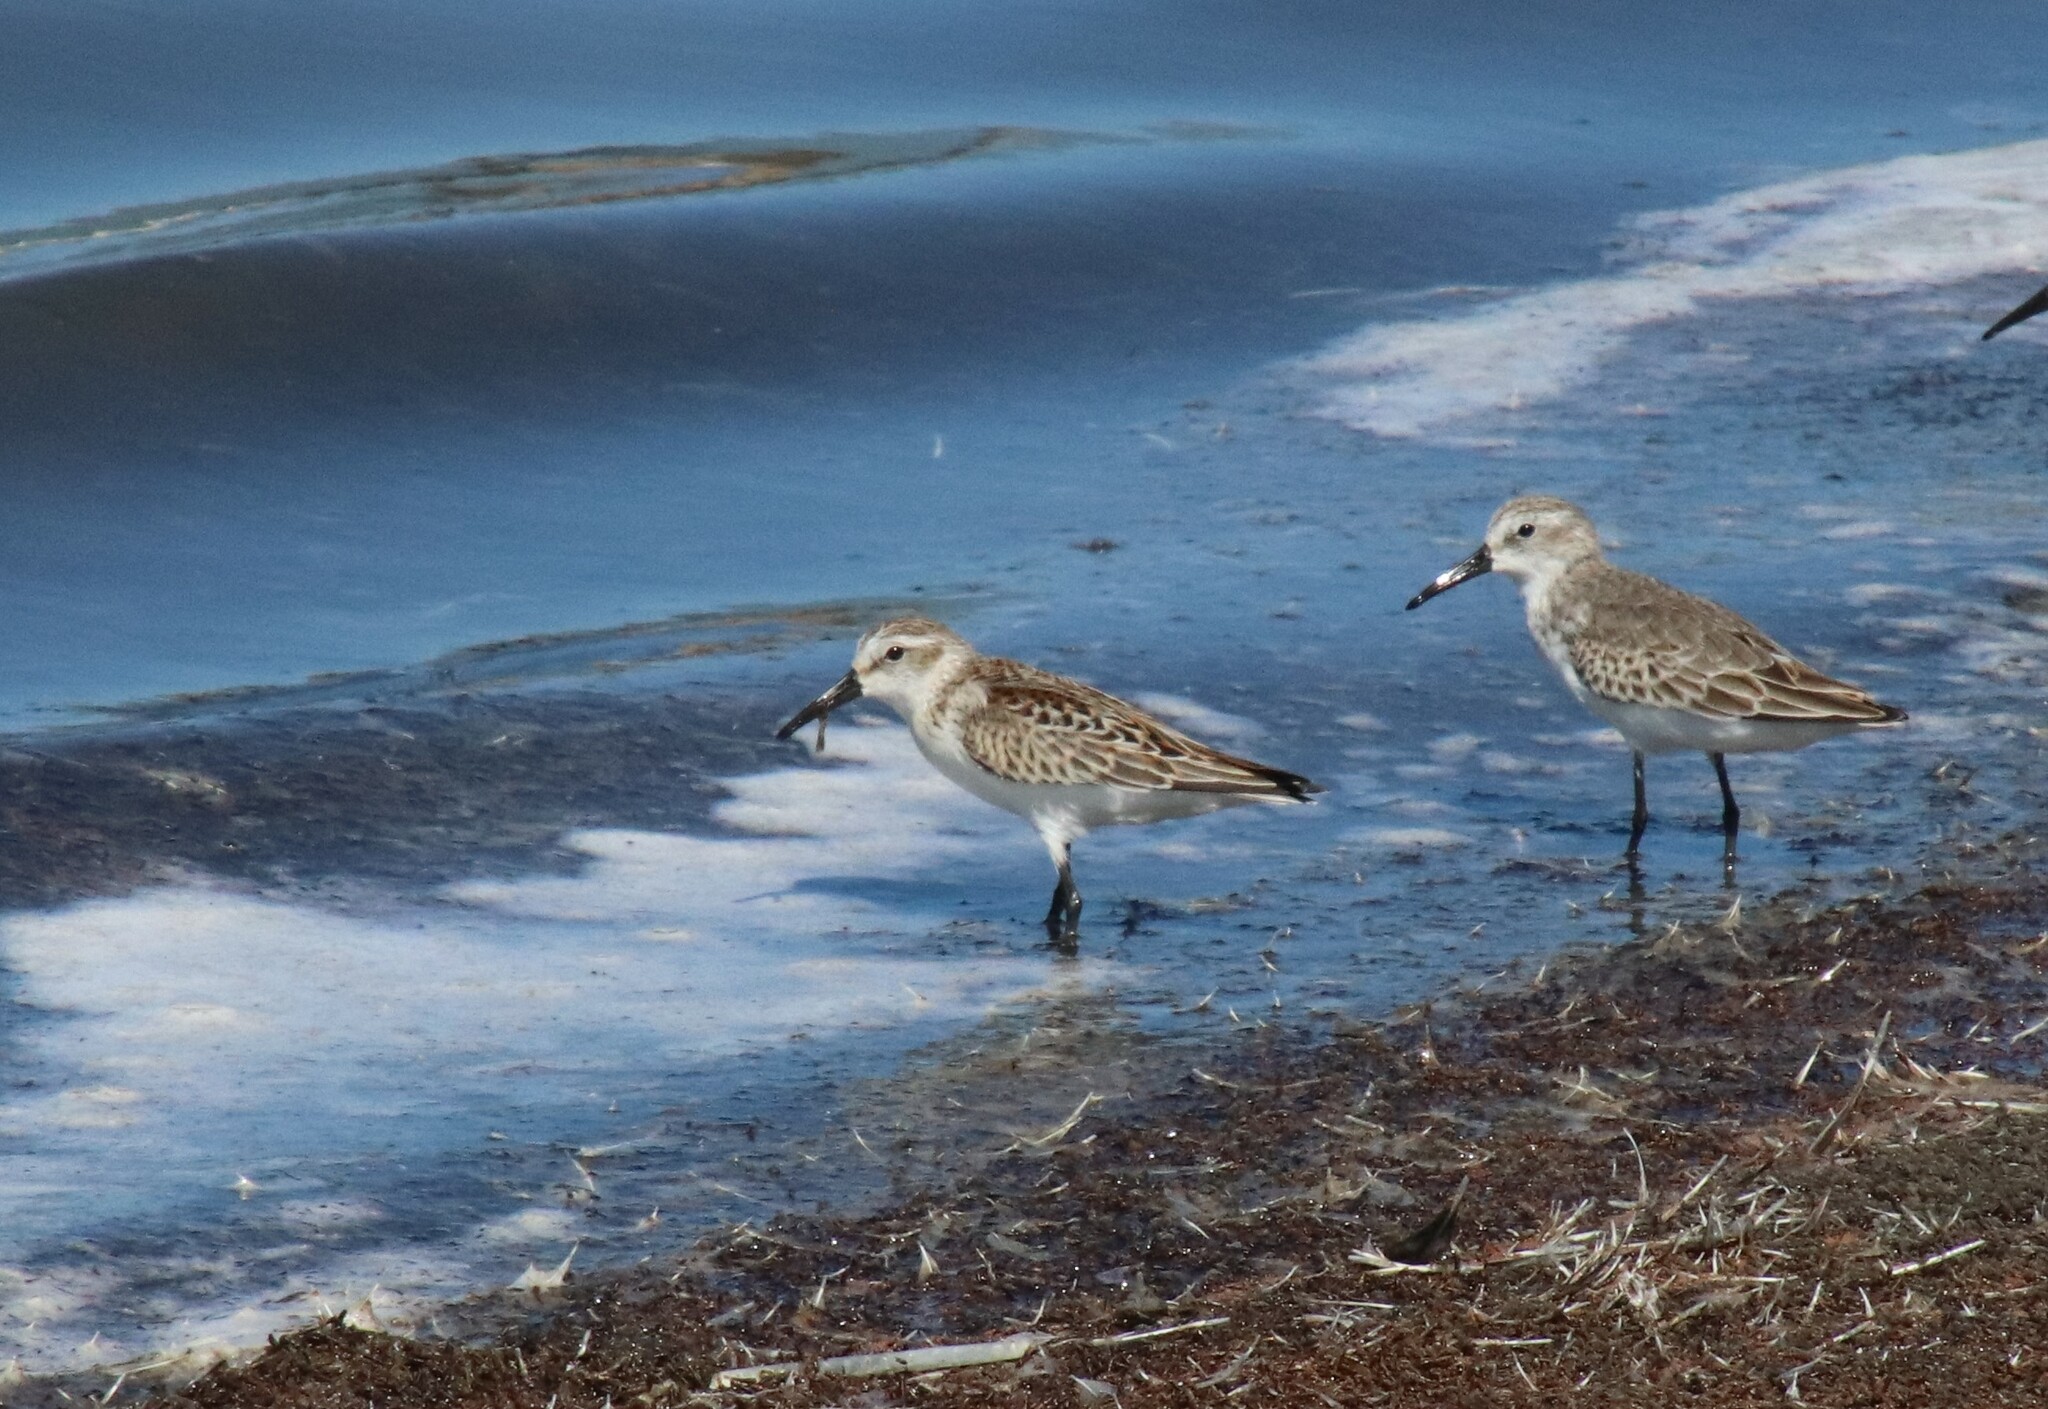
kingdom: Animalia
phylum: Chordata
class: Aves
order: Charadriiformes
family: Scolopacidae
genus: Calidris
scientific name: Calidris mauri
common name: Western sandpiper
